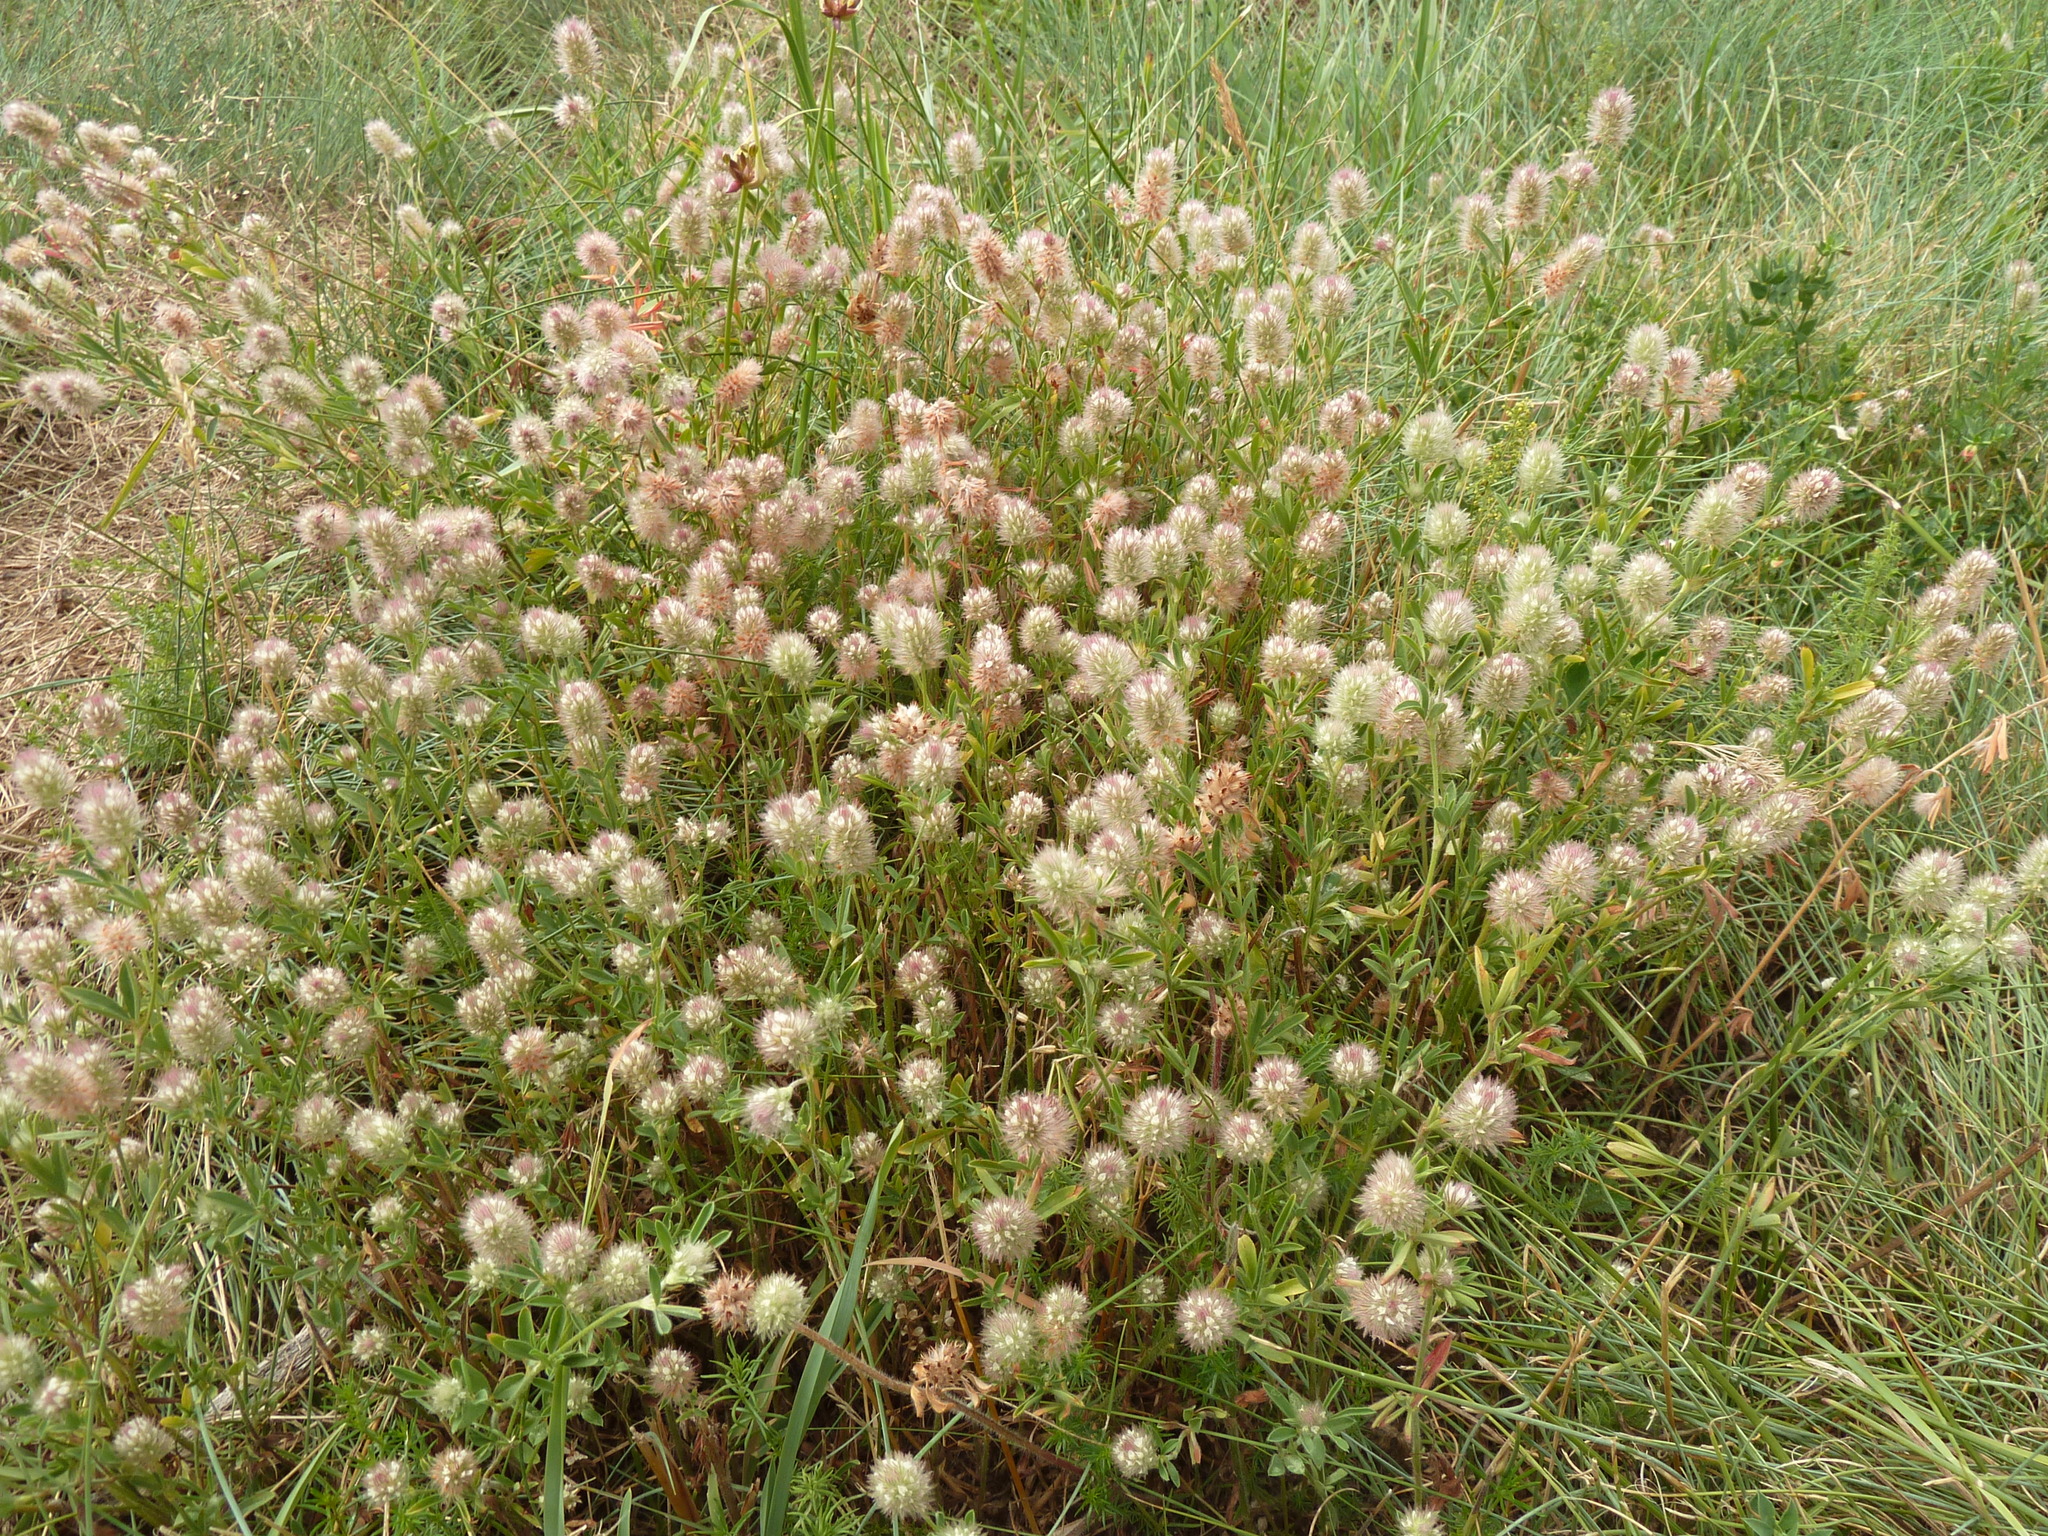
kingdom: Plantae
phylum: Tracheophyta
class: Magnoliopsida
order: Fabales
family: Fabaceae
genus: Trifolium
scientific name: Trifolium arvense
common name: Hare's-foot clover
